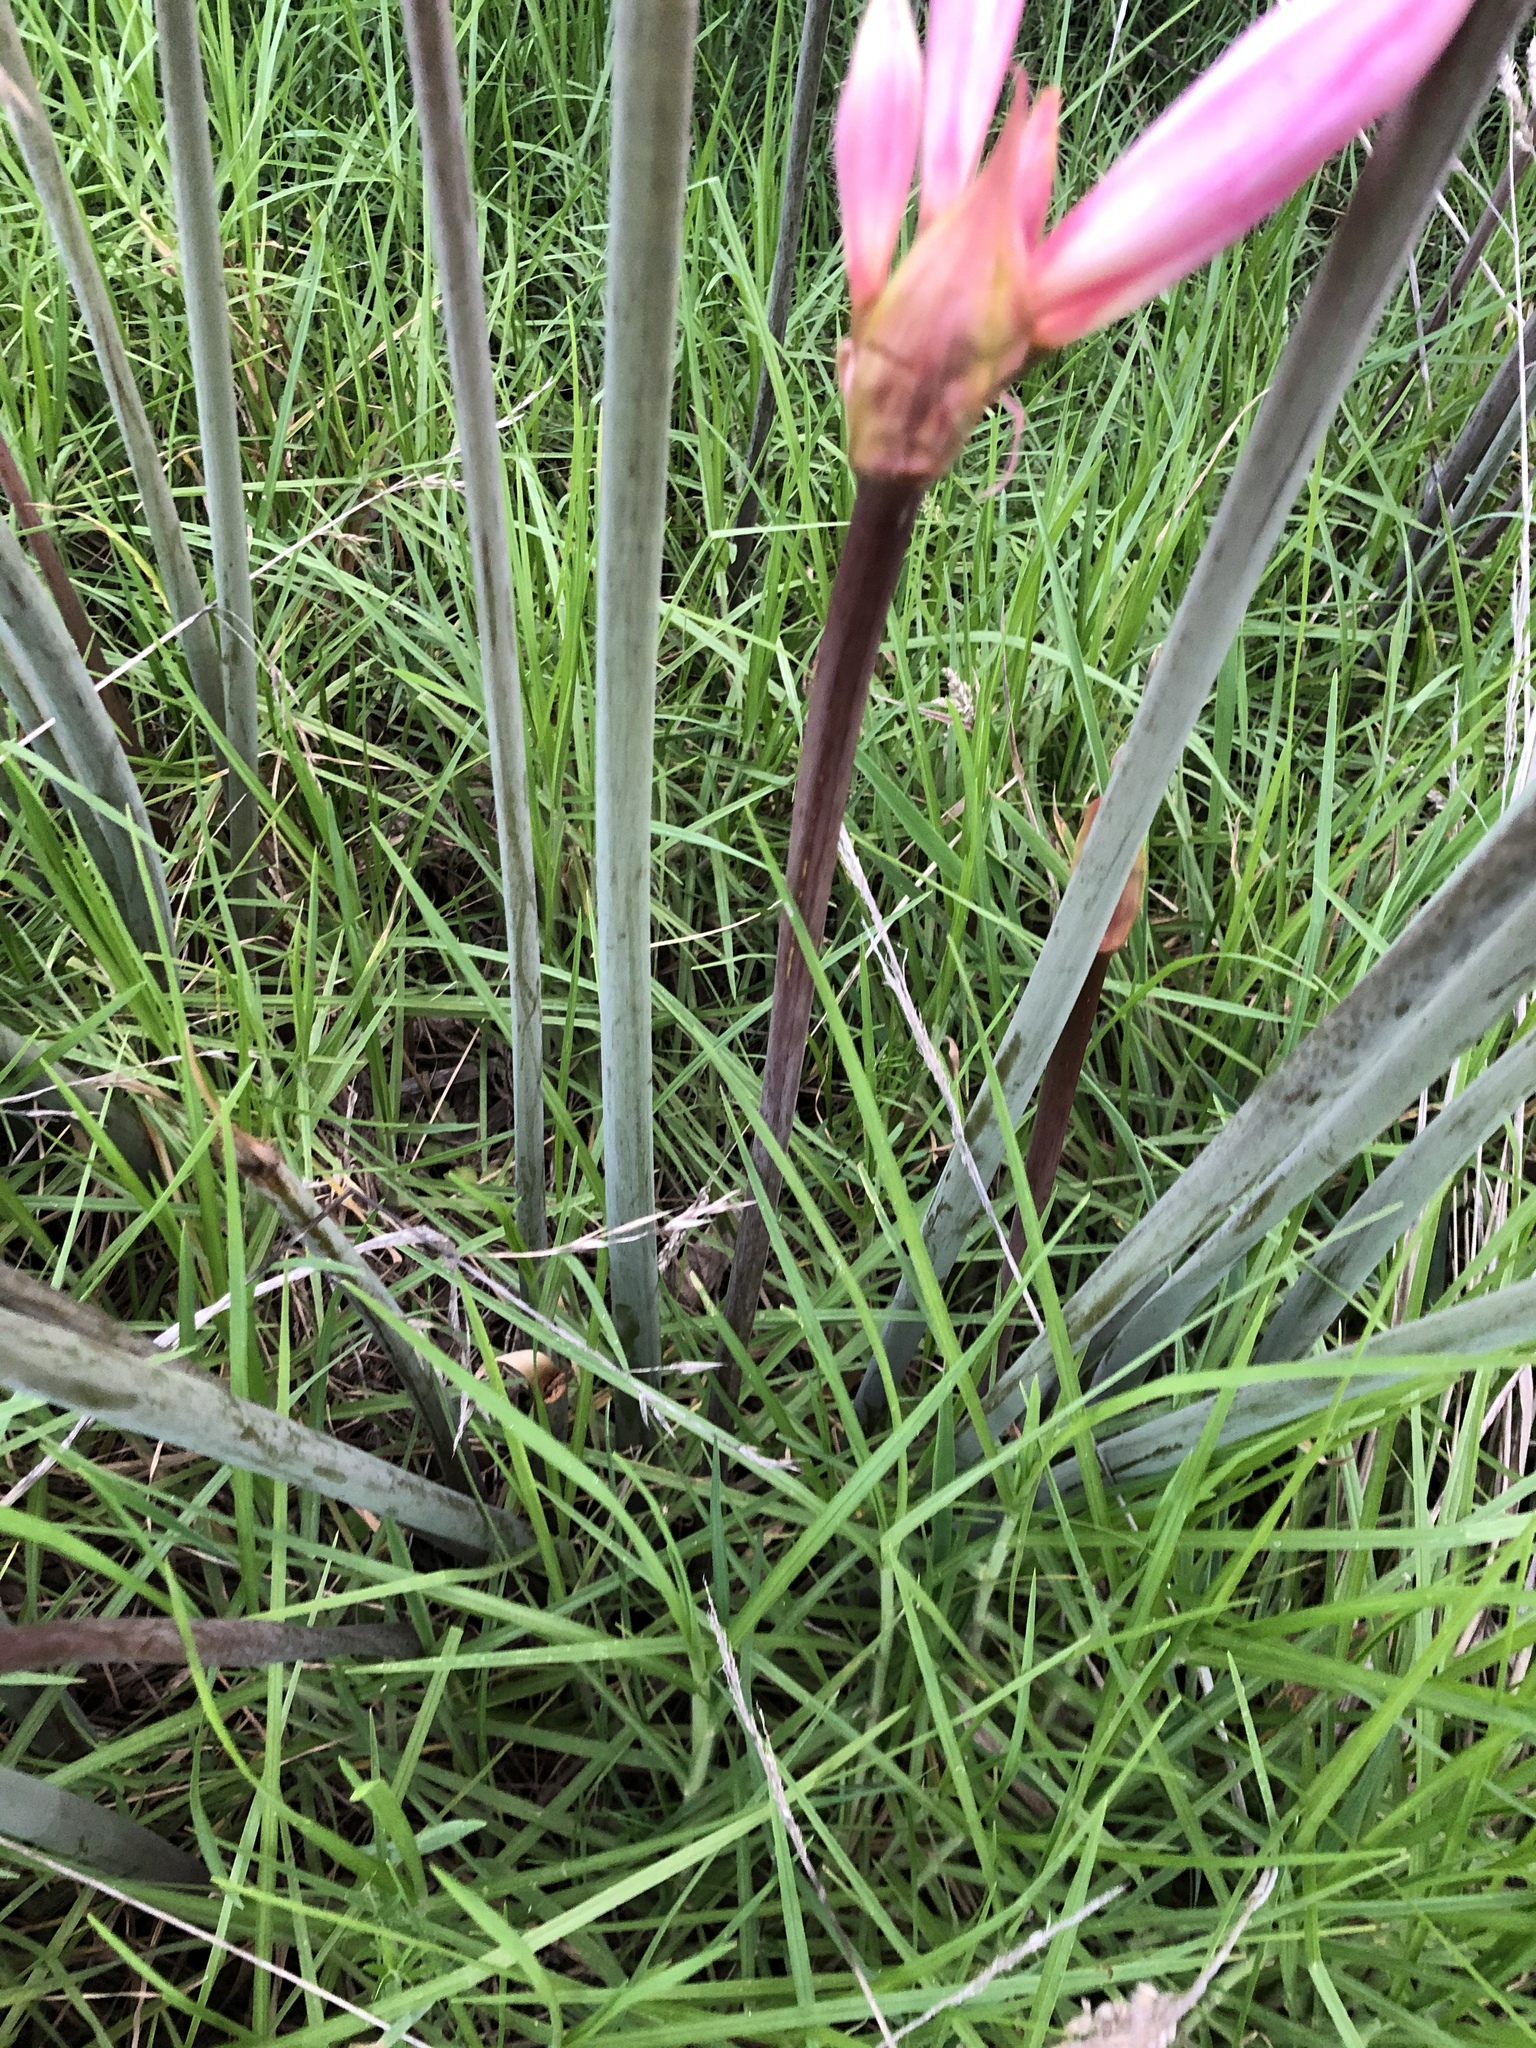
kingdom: Plantae
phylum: Tracheophyta
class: Liliopsida
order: Asparagales
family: Amaryllidaceae
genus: Amaryllis
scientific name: Amaryllis belladonna
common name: Jersey lily
